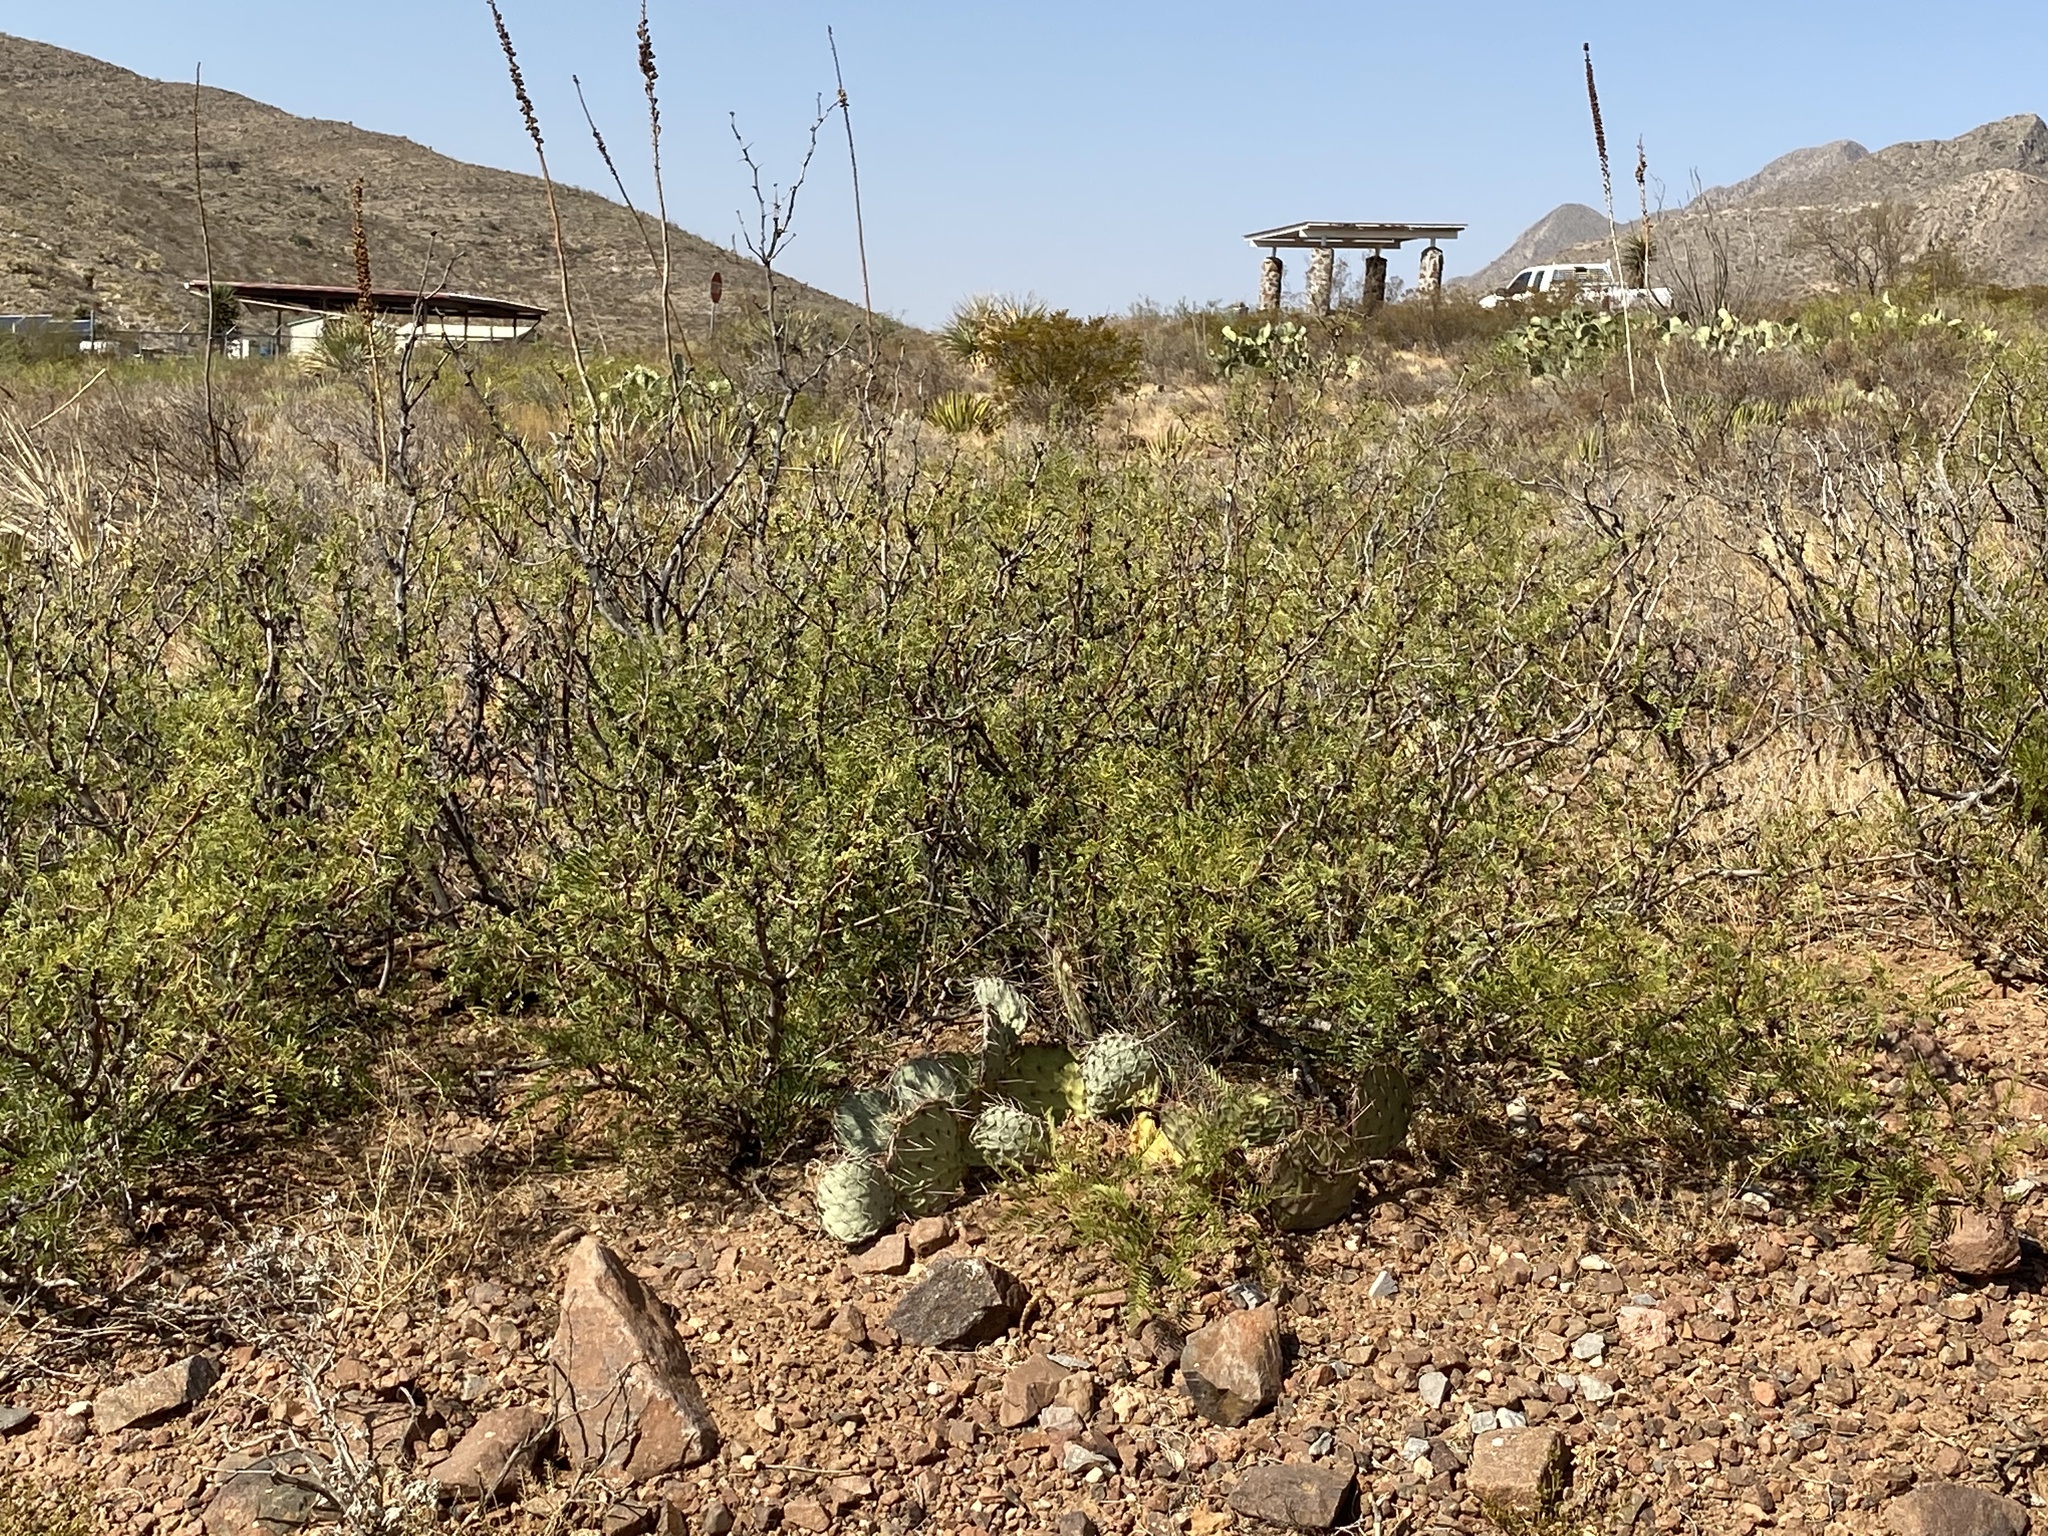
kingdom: Plantae
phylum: Tracheophyta
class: Magnoliopsida
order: Fabales
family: Fabaceae
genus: Prosopis
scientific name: Prosopis glandulosa
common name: Honey mesquite
